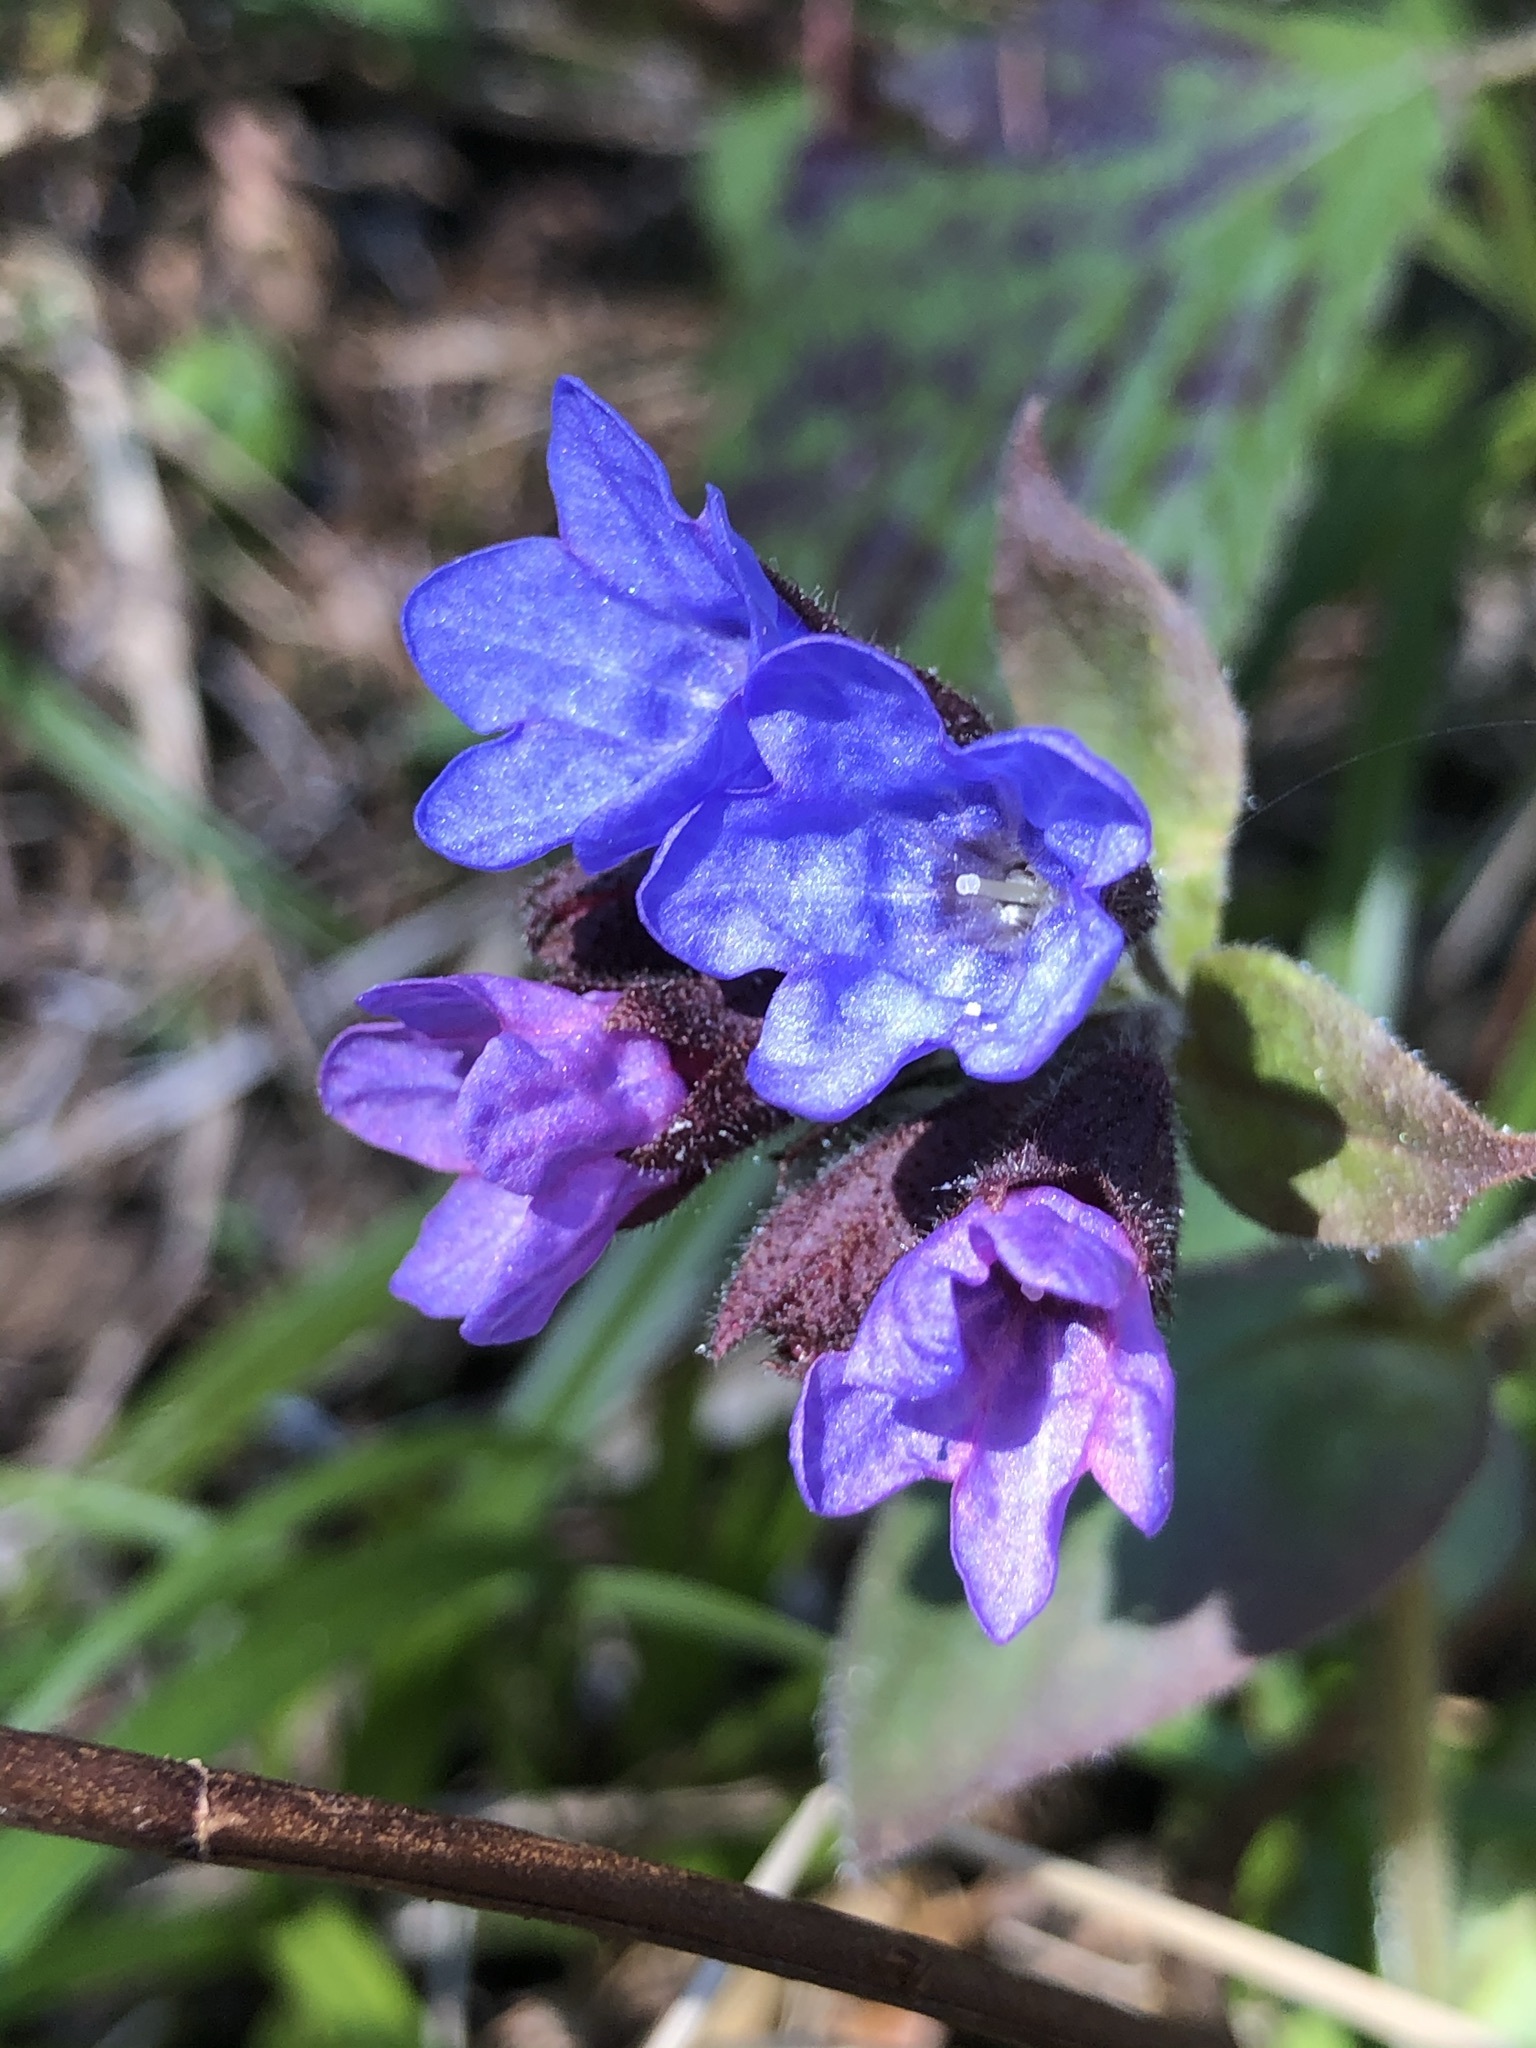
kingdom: Plantae
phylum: Tracheophyta
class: Magnoliopsida
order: Boraginales
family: Boraginaceae
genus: Pulmonaria
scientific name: Pulmonaria officinalis
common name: Lungwort
